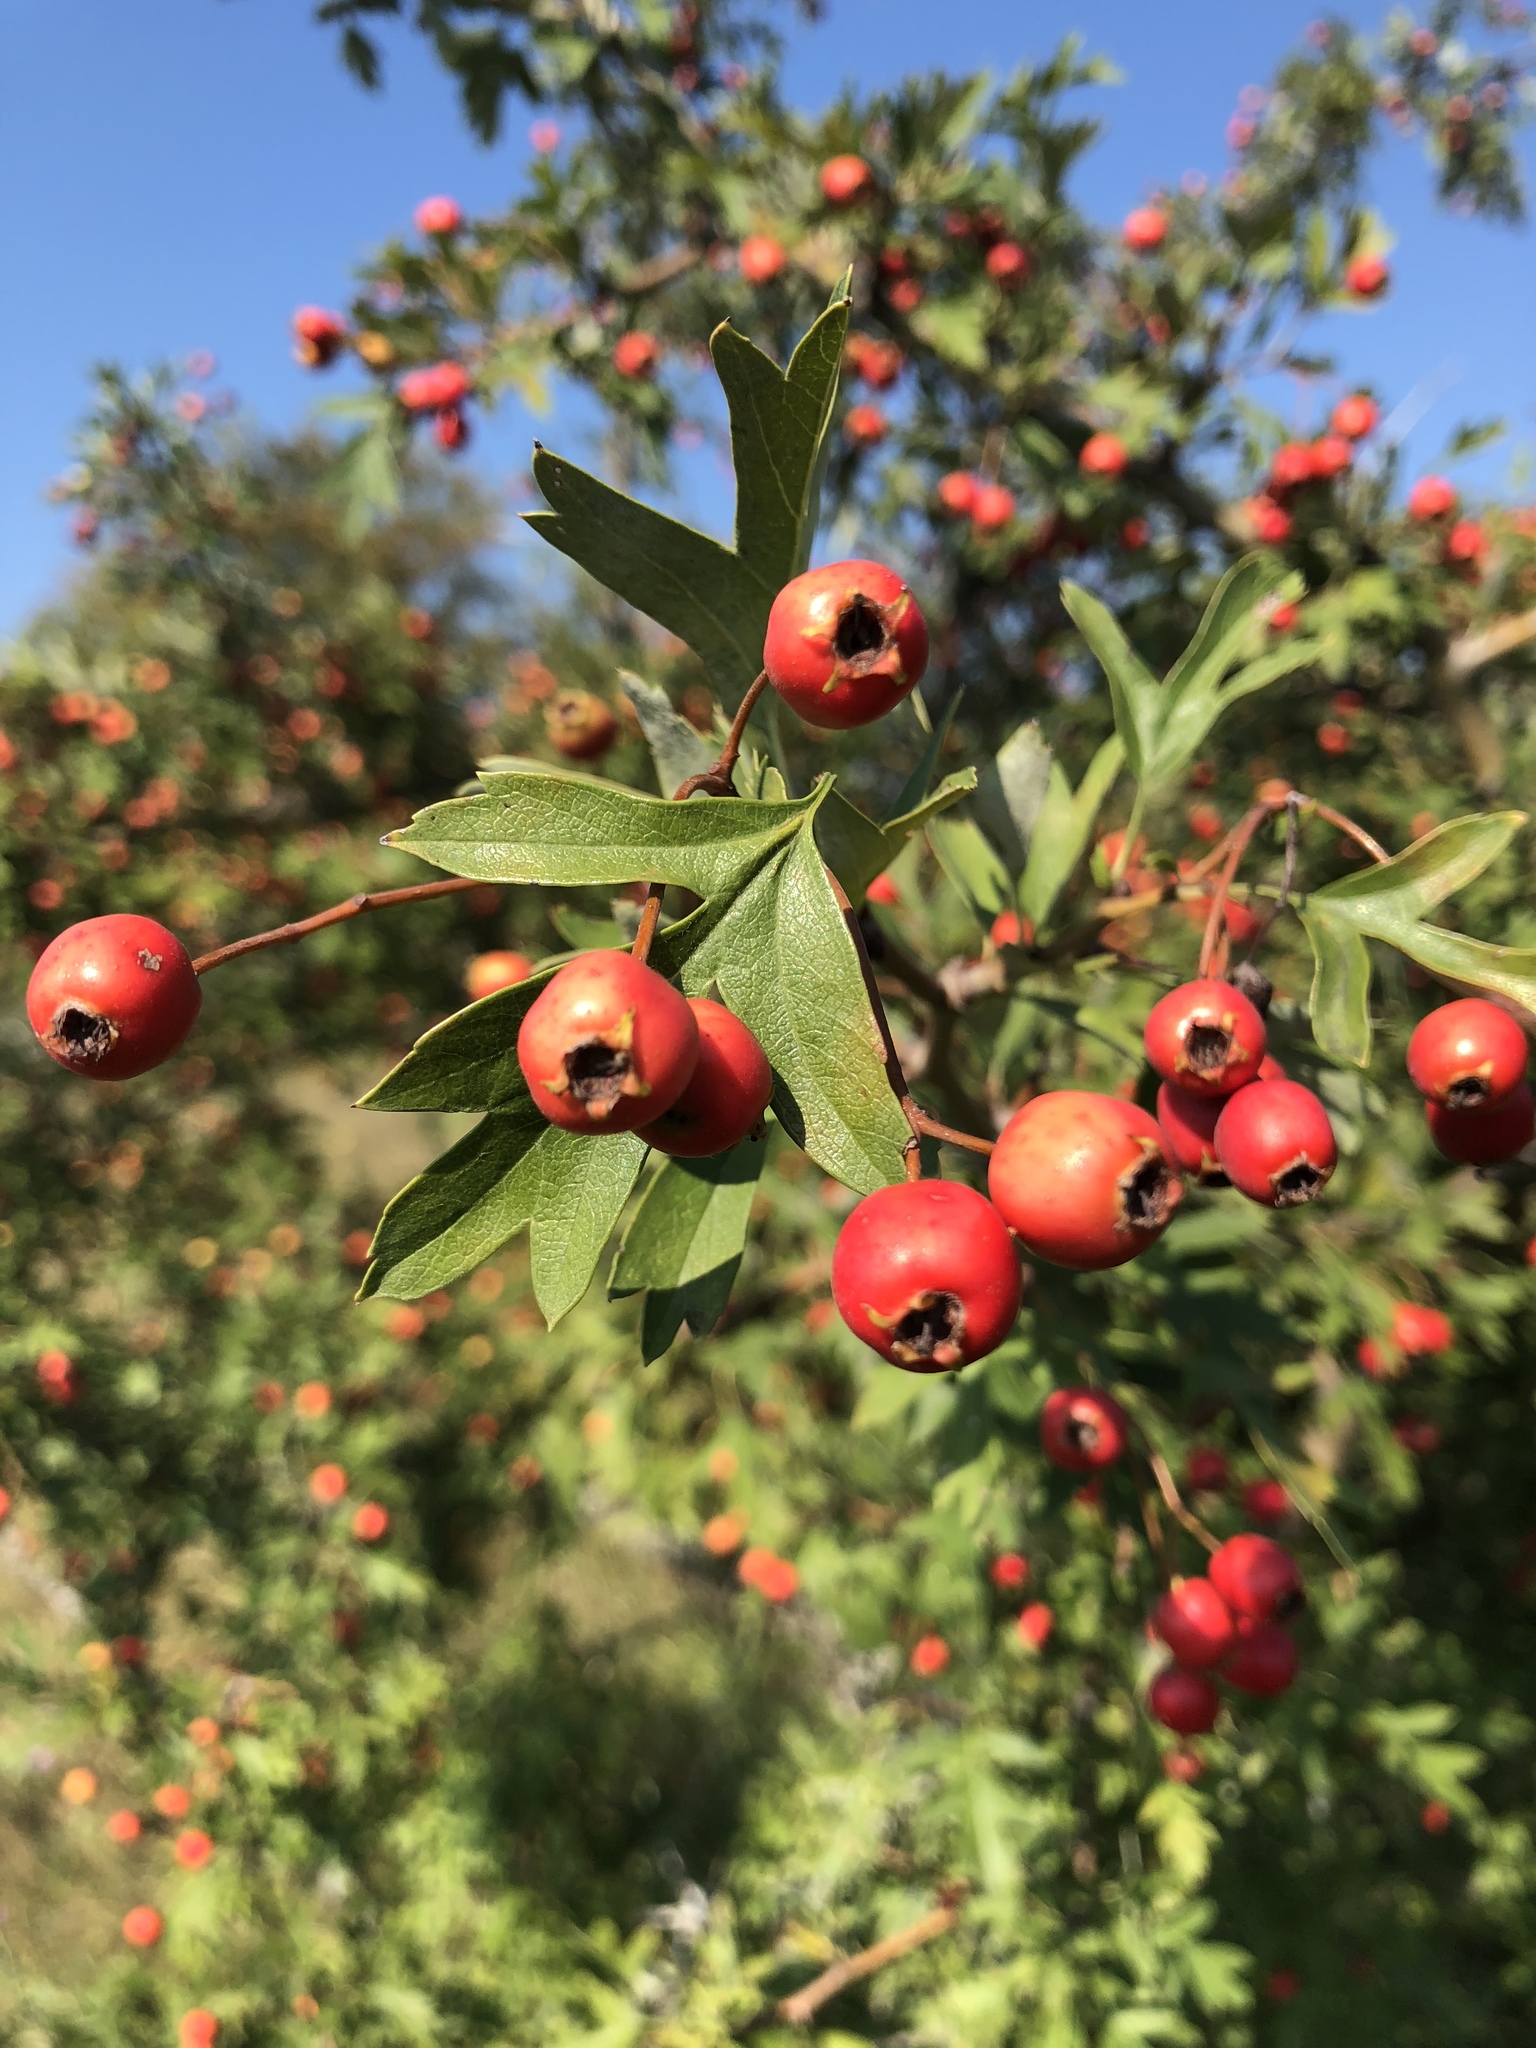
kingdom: Plantae
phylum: Tracheophyta
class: Magnoliopsida
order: Rosales
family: Rosaceae
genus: Crataegus
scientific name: Crataegus monogyna
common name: Hawthorn
